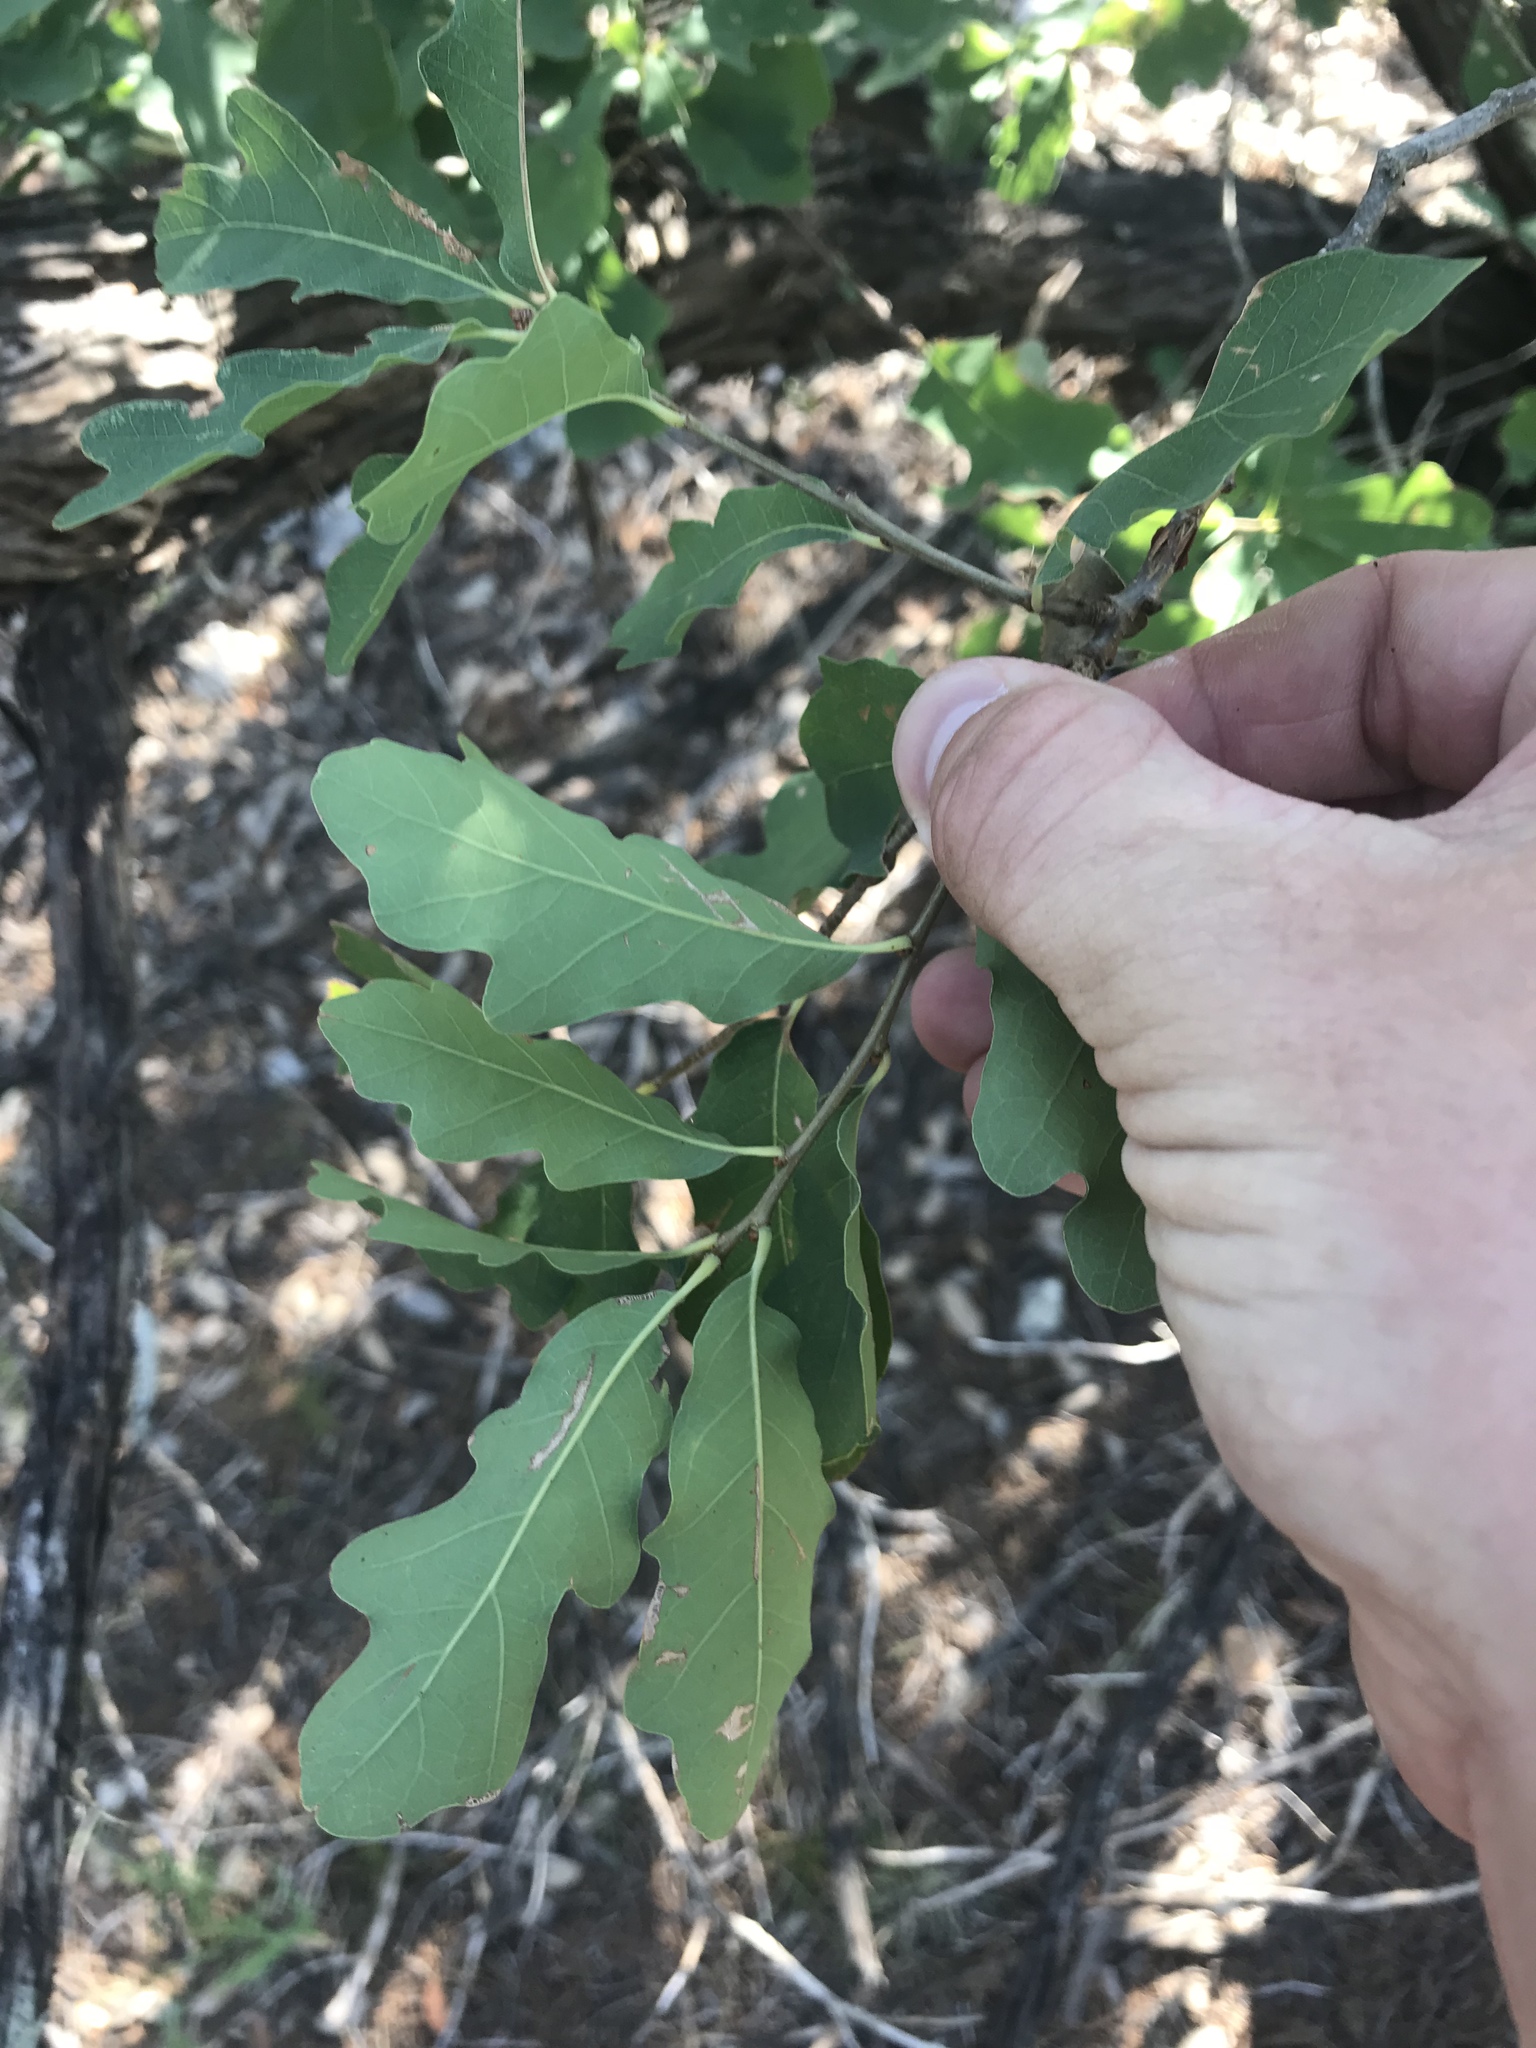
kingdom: Plantae
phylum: Tracheophyta
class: Magnoliopsida
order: Fagales
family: Fagaceae
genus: Quercus
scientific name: Quercus laceyi
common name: Lacey oak
